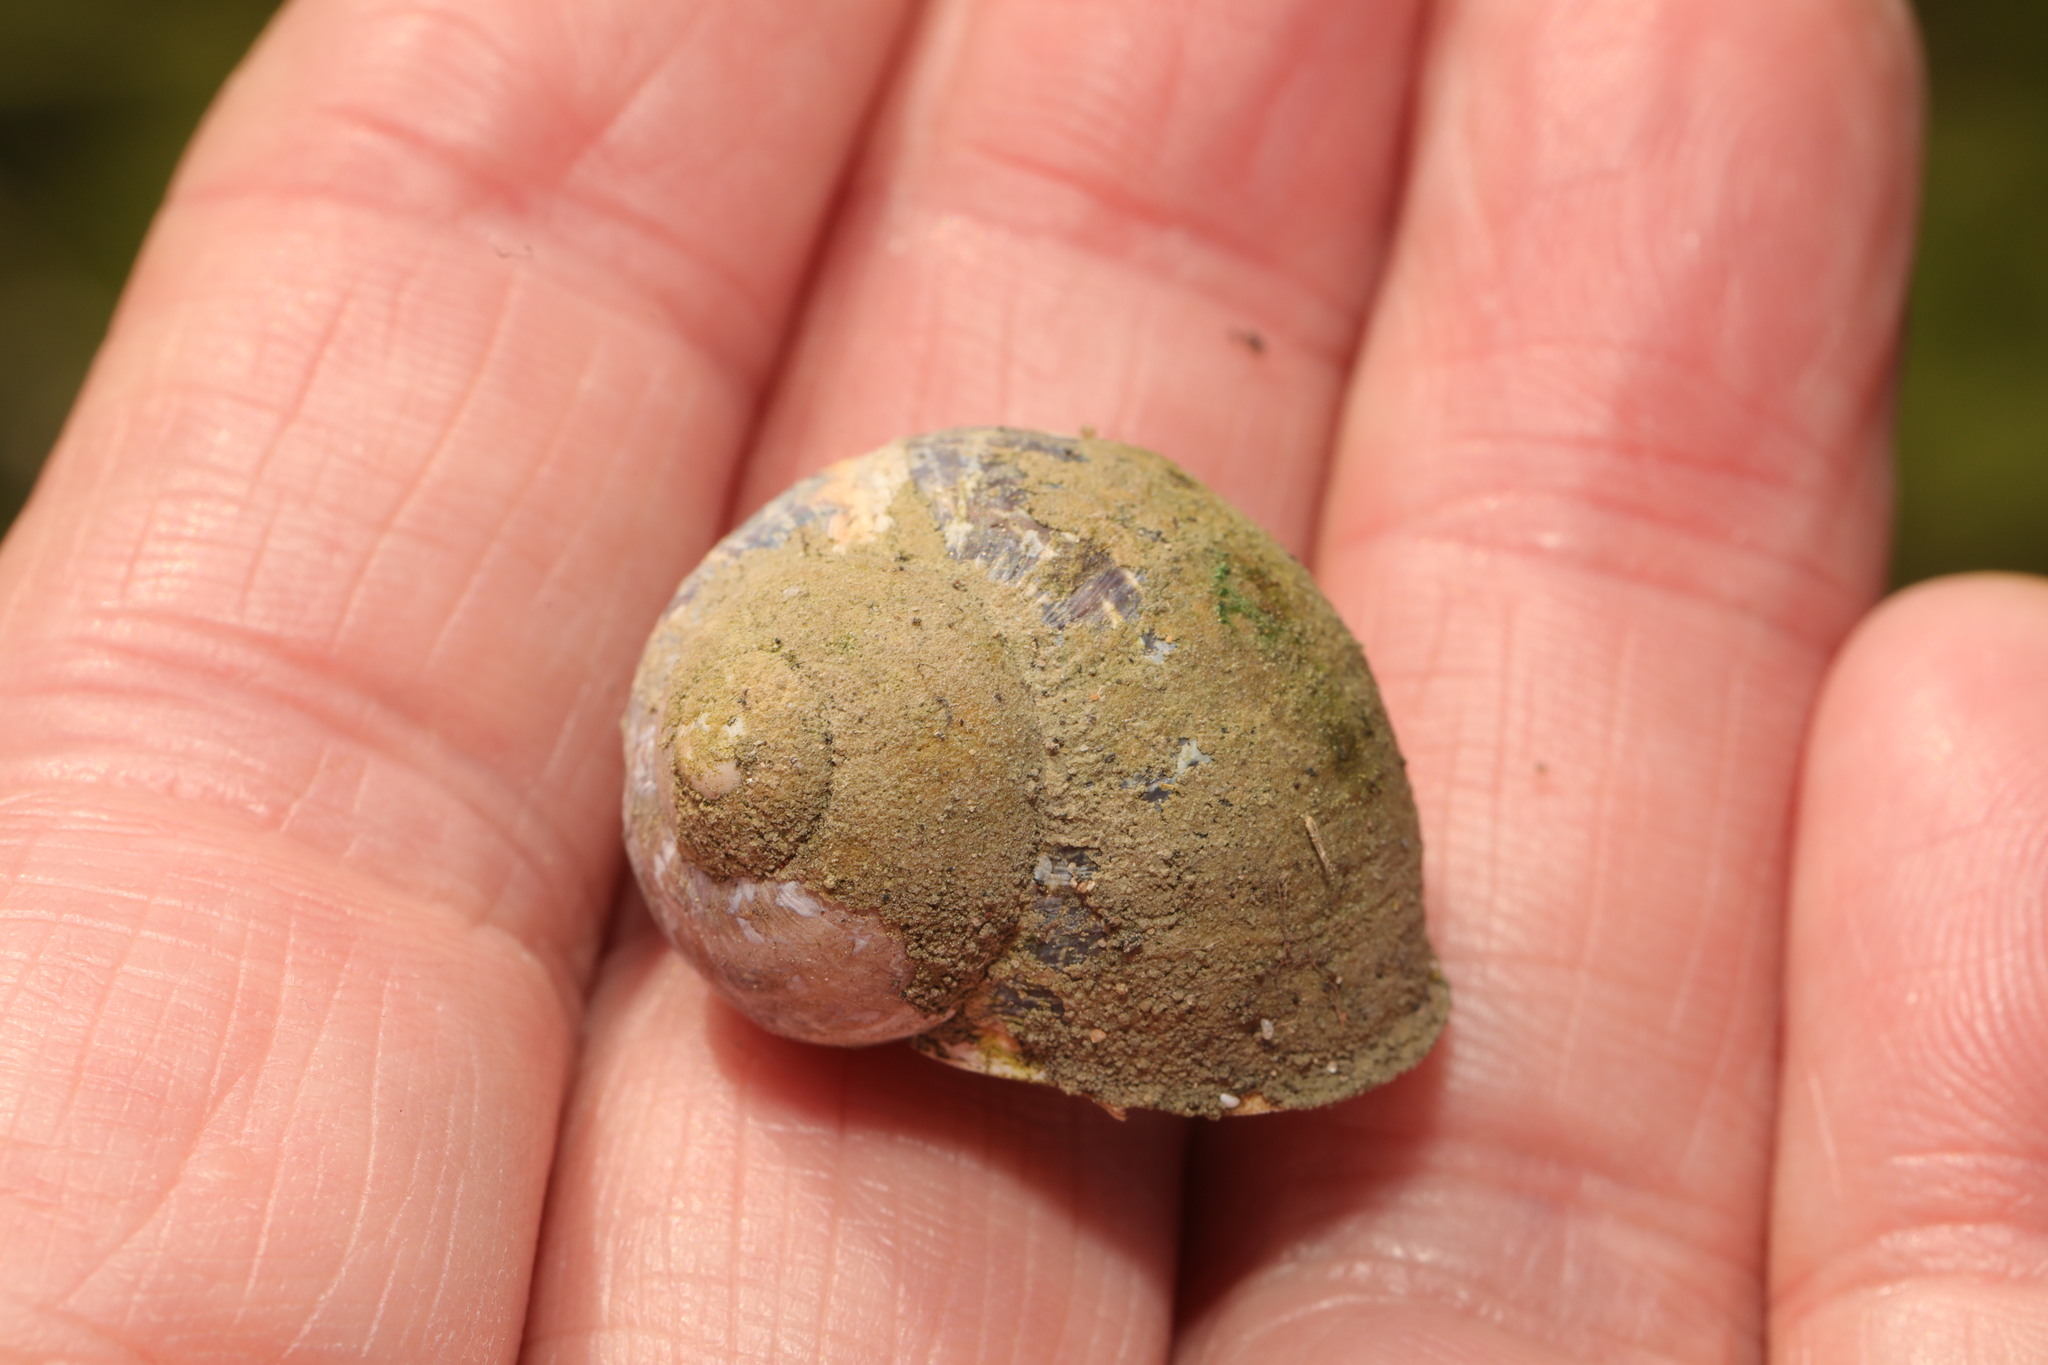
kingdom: Animalia
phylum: Mollusca
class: Gastropoda
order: Stylommatophora
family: Helicidae
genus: Cornu
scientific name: Cornu aspersum
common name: Brown garden snail
